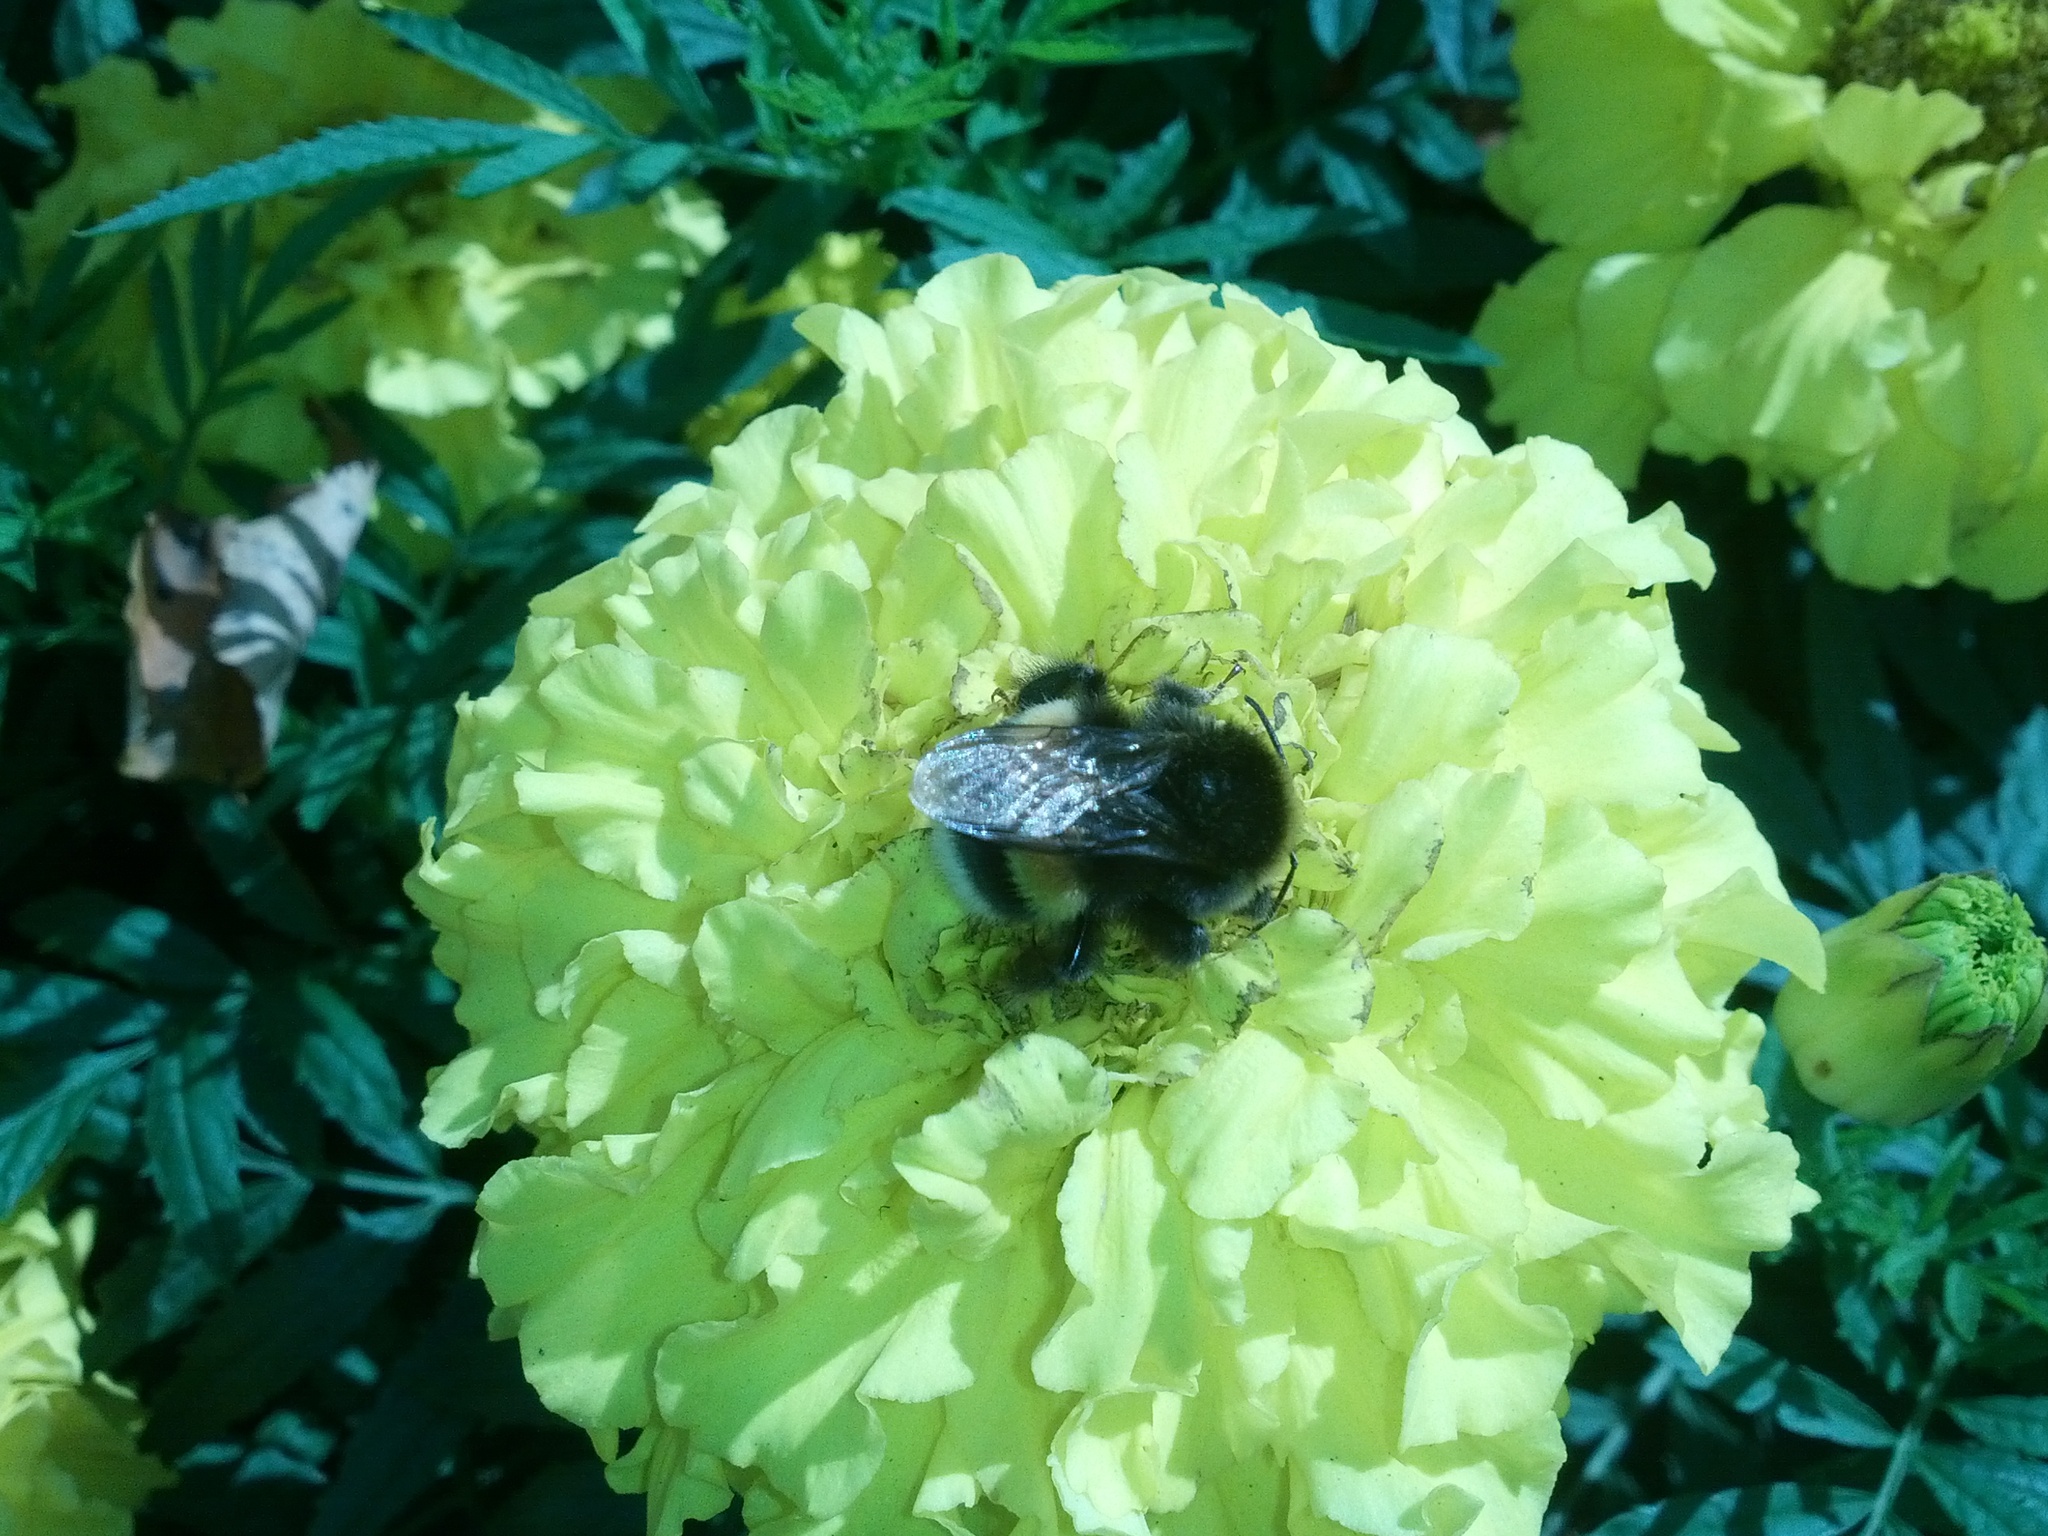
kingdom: Animalia
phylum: Arthropoda
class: Insecta
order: Hymenoptera
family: Apidae
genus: Bombus
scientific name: Bombus
